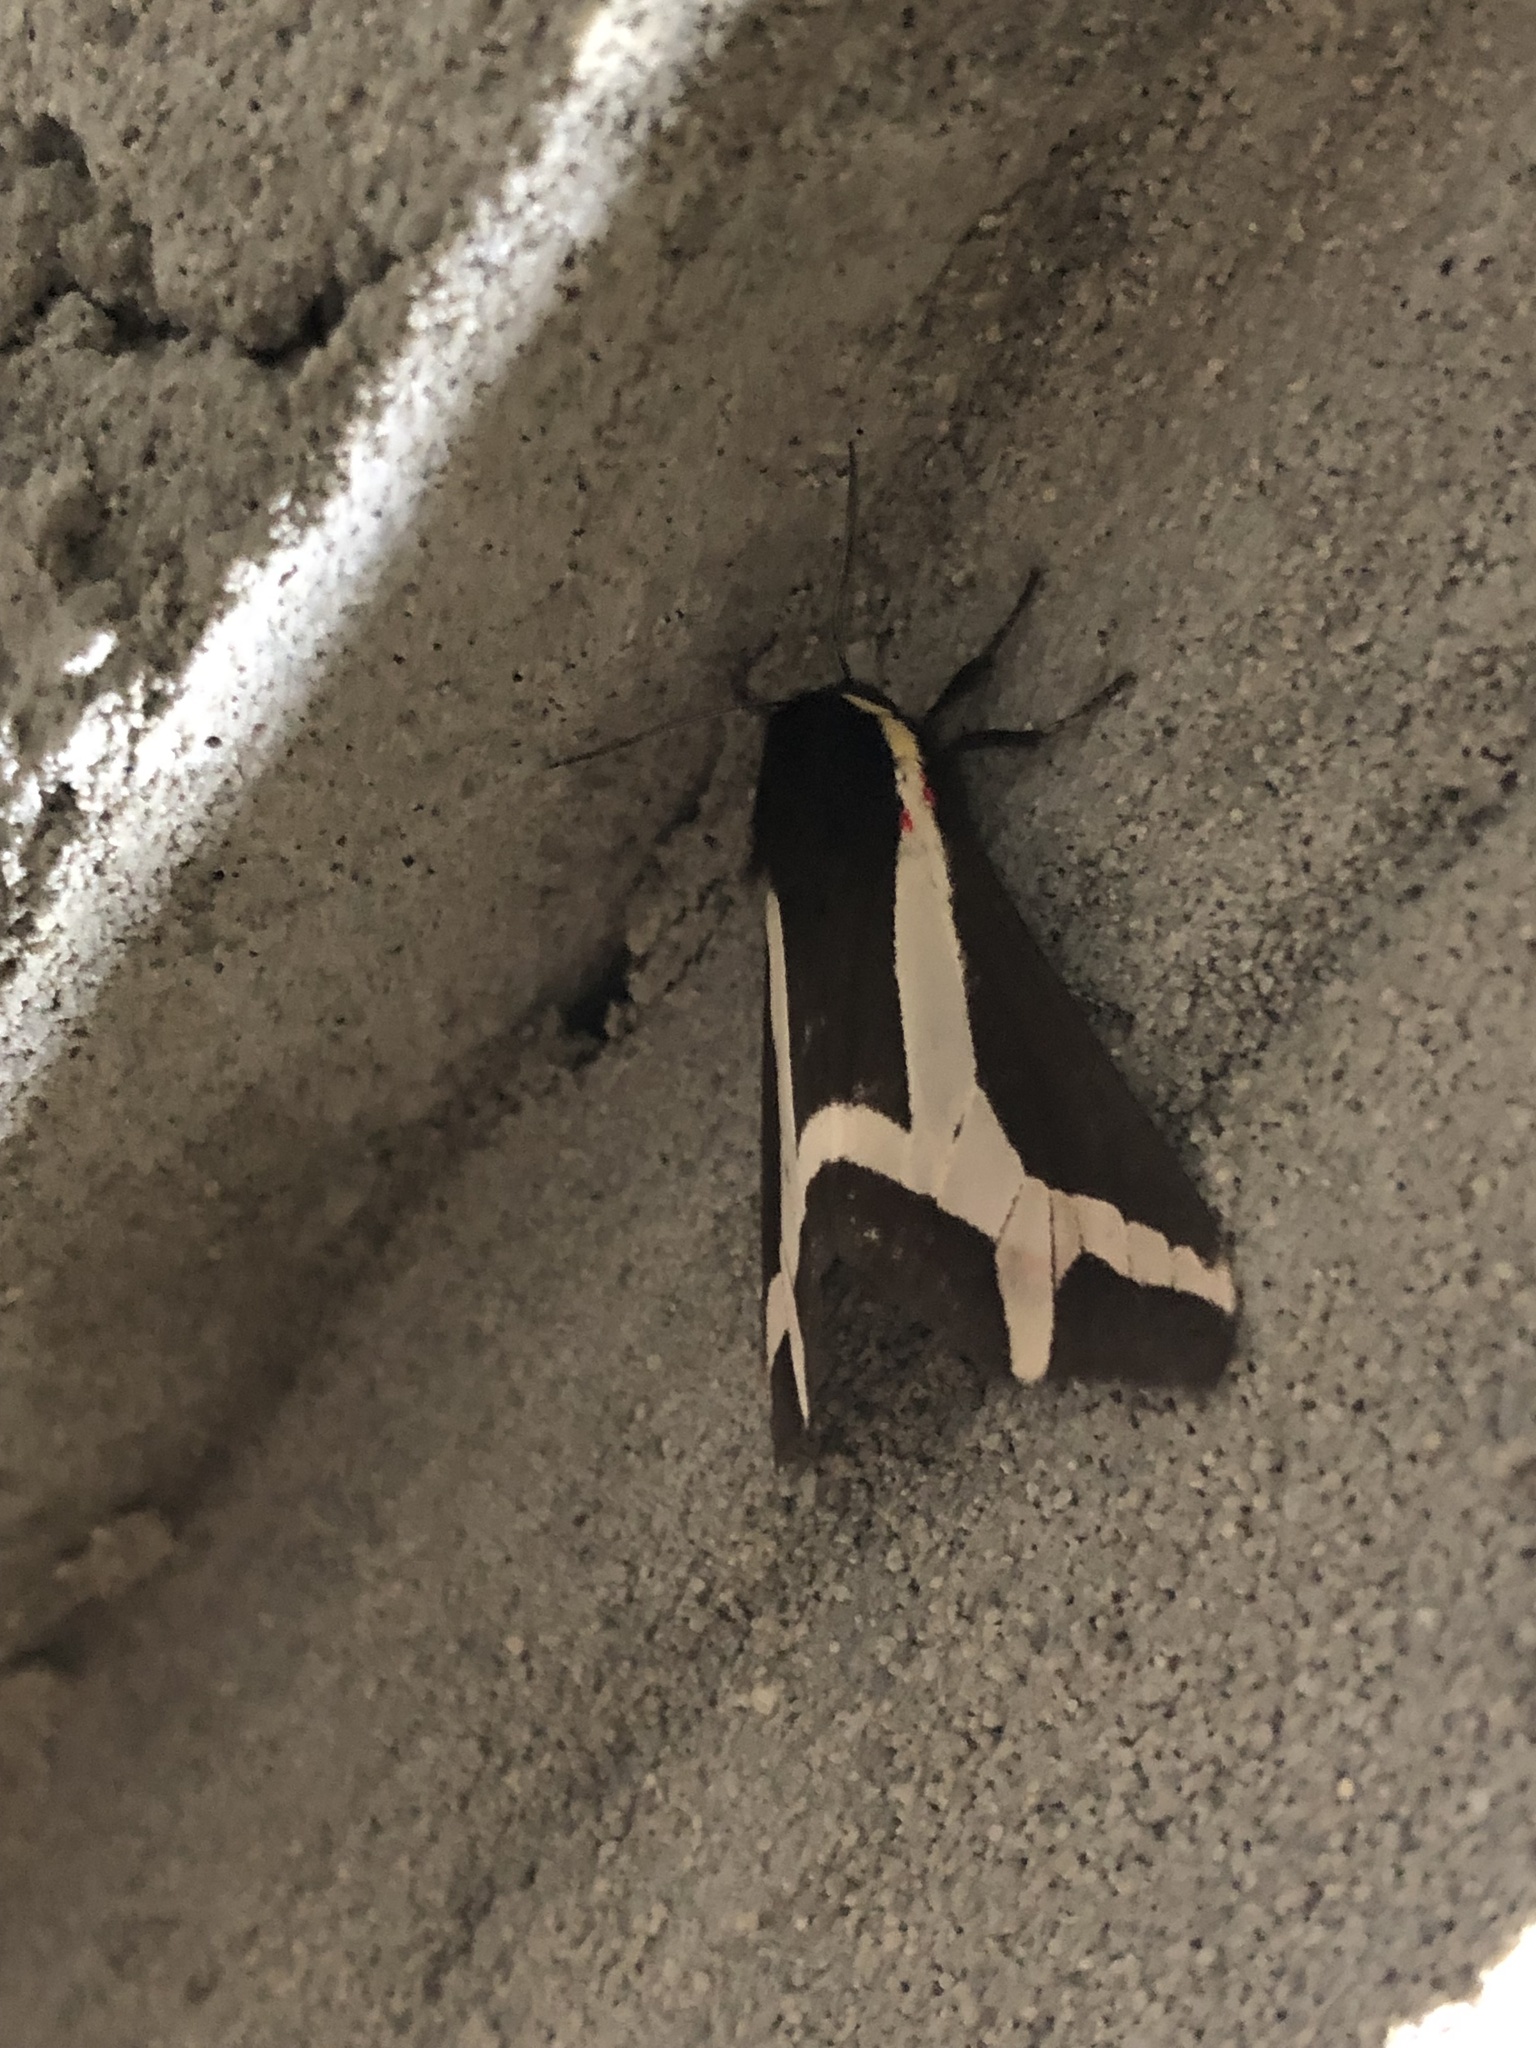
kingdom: Animalia
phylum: Arthropoda
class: Insecta
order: Lepidoptera
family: Erebidae
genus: Dysschema
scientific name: Dysschema sacrifica
